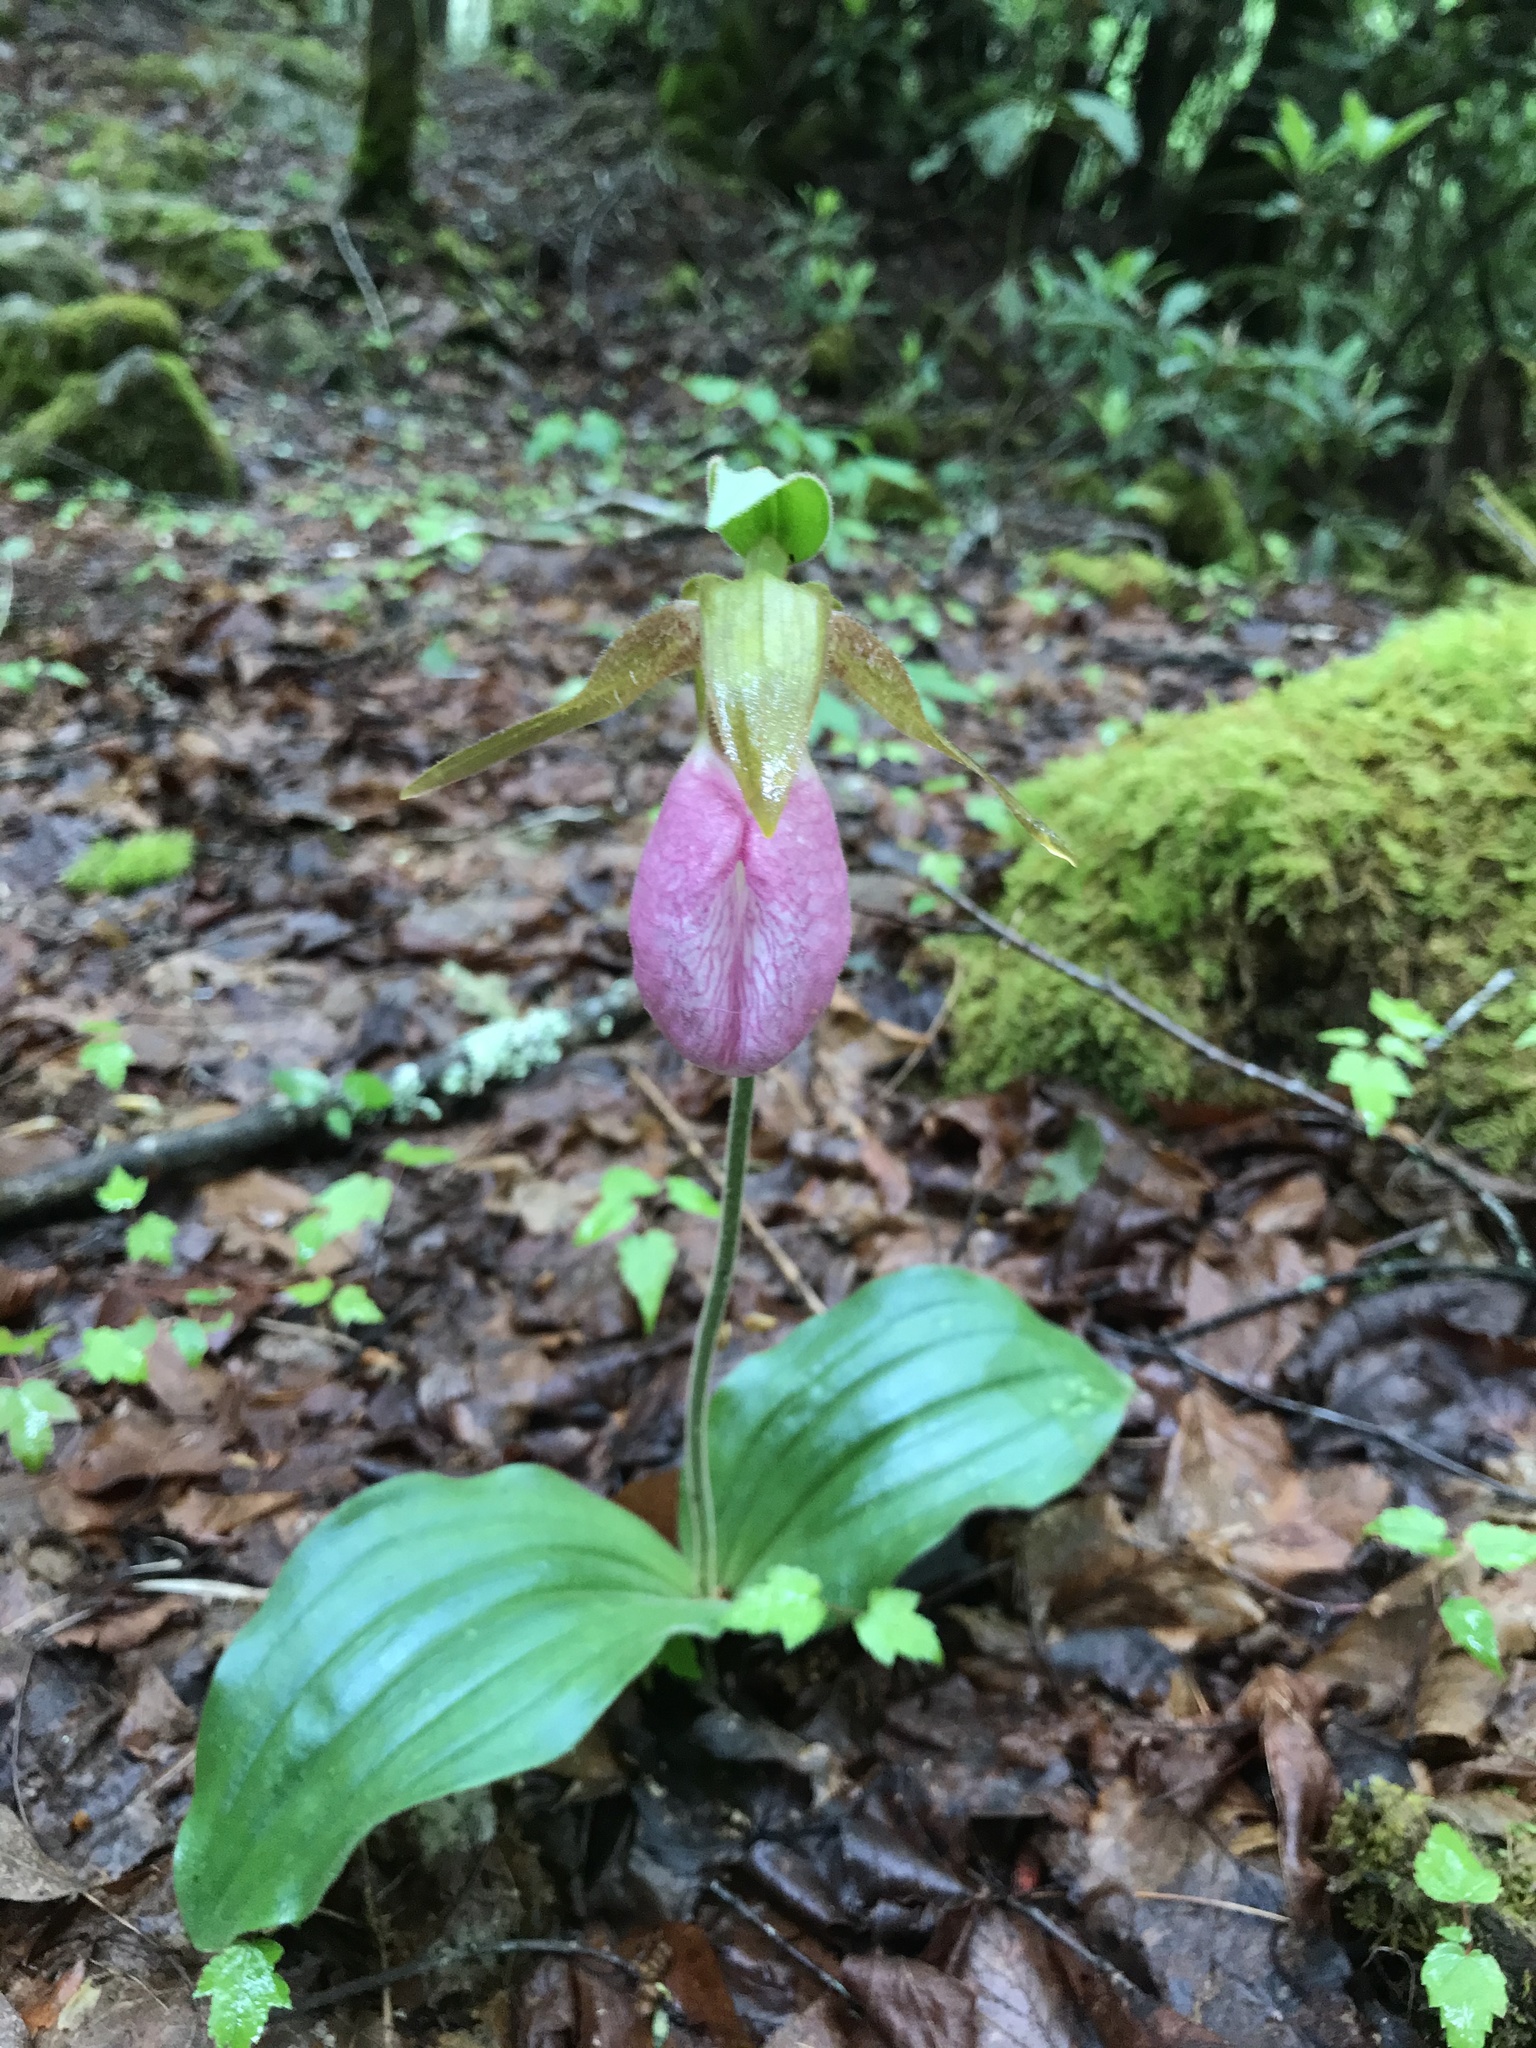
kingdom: Plantae
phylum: Tracheophyta
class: Liliopsida
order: Asparagales
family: Orchidaceae
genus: Cypripedium
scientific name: Cypripedium acaule
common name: Pink lady's-slipper
